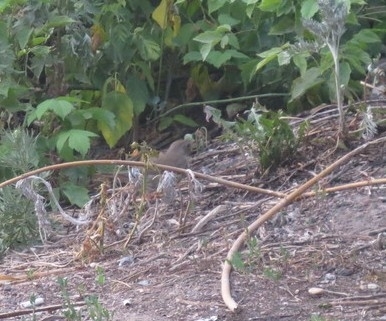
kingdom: Animalia
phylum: Chordata
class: Aves
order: Passeriformes
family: Turdidae
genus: Turdus
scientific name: Turdus philomelos
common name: Song thrush
